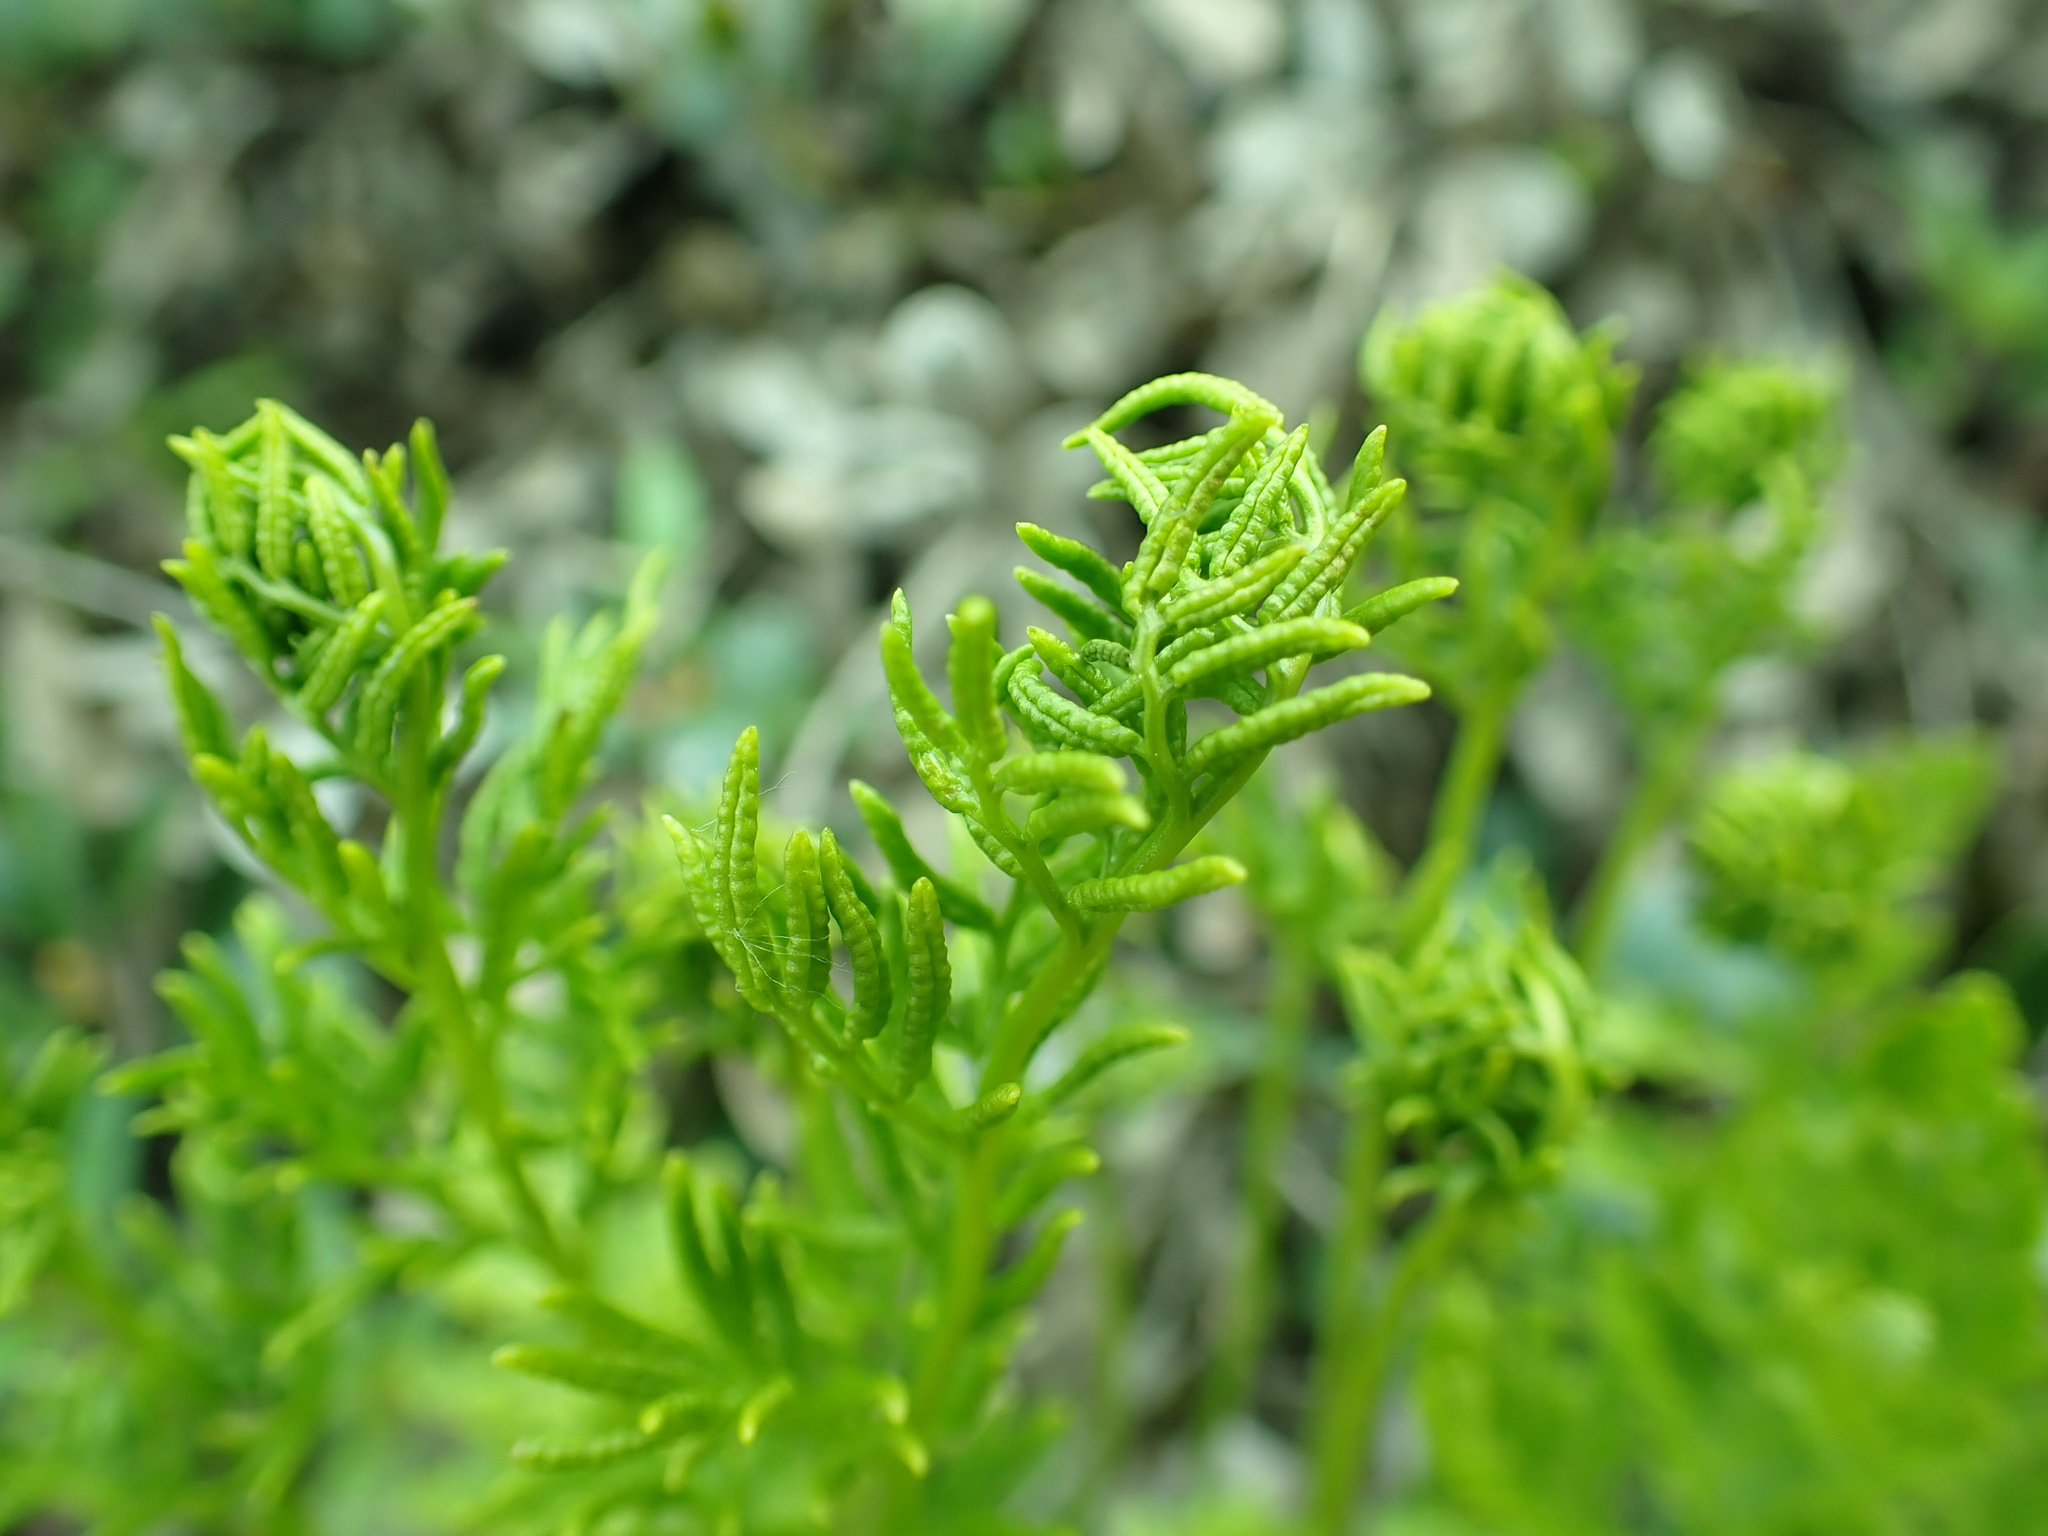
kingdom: Plantae
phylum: Tracheophyta
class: Polypodiopsida
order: Polypodiales
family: Pteridaceae
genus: Cryptogramma
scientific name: Cryptogramma acrostichoides
